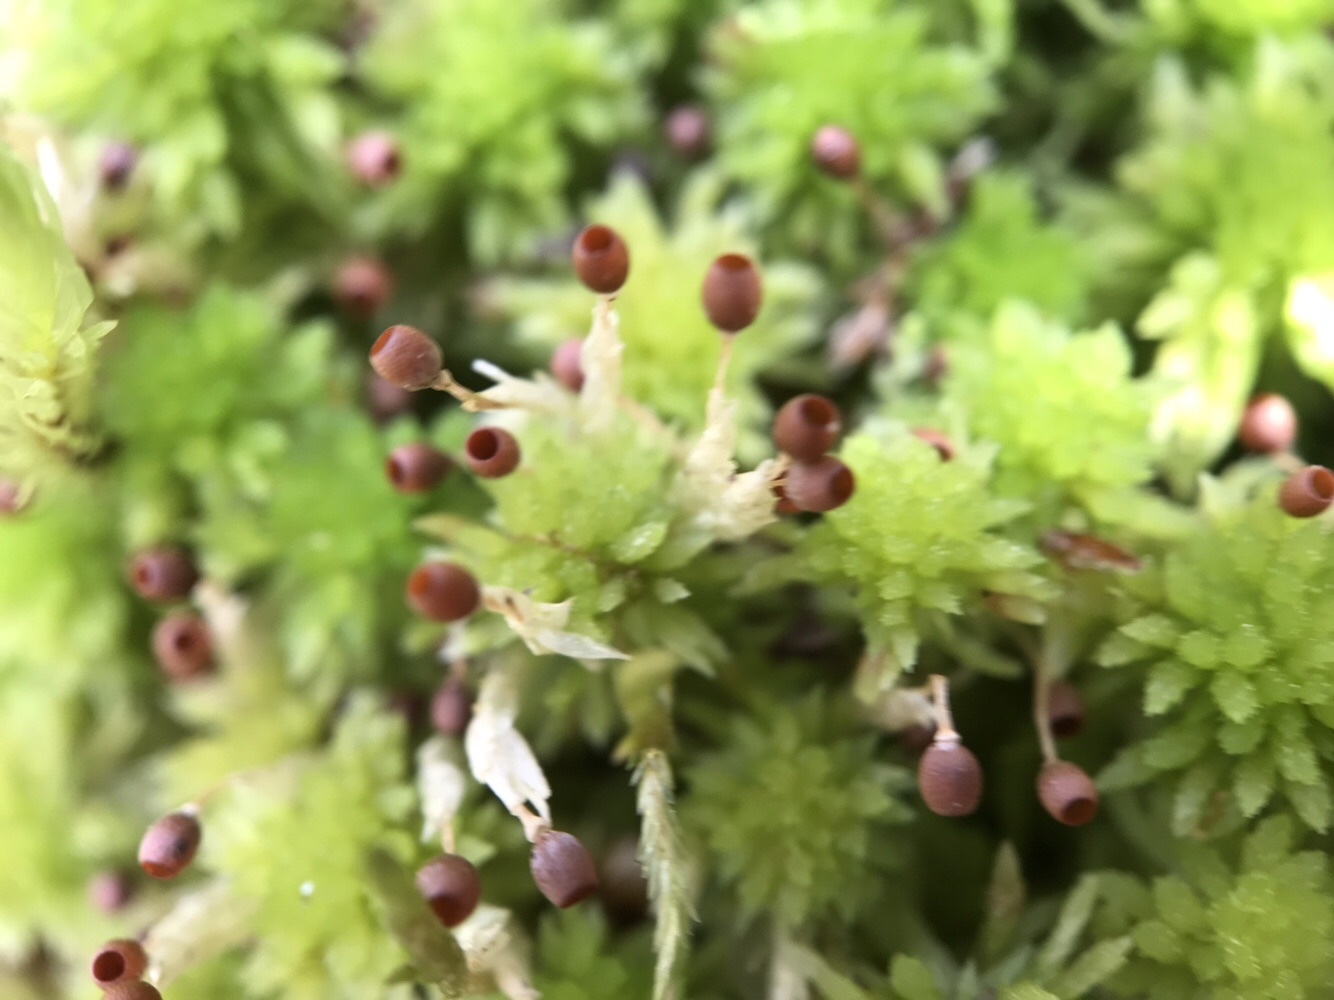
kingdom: Plantae
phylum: Bryophyta
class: Sphagnopsida
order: Sphagnales
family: Sphagnaceae
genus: Sphagnum
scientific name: Sphagnum subnitens
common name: Lustrous bog-moss
